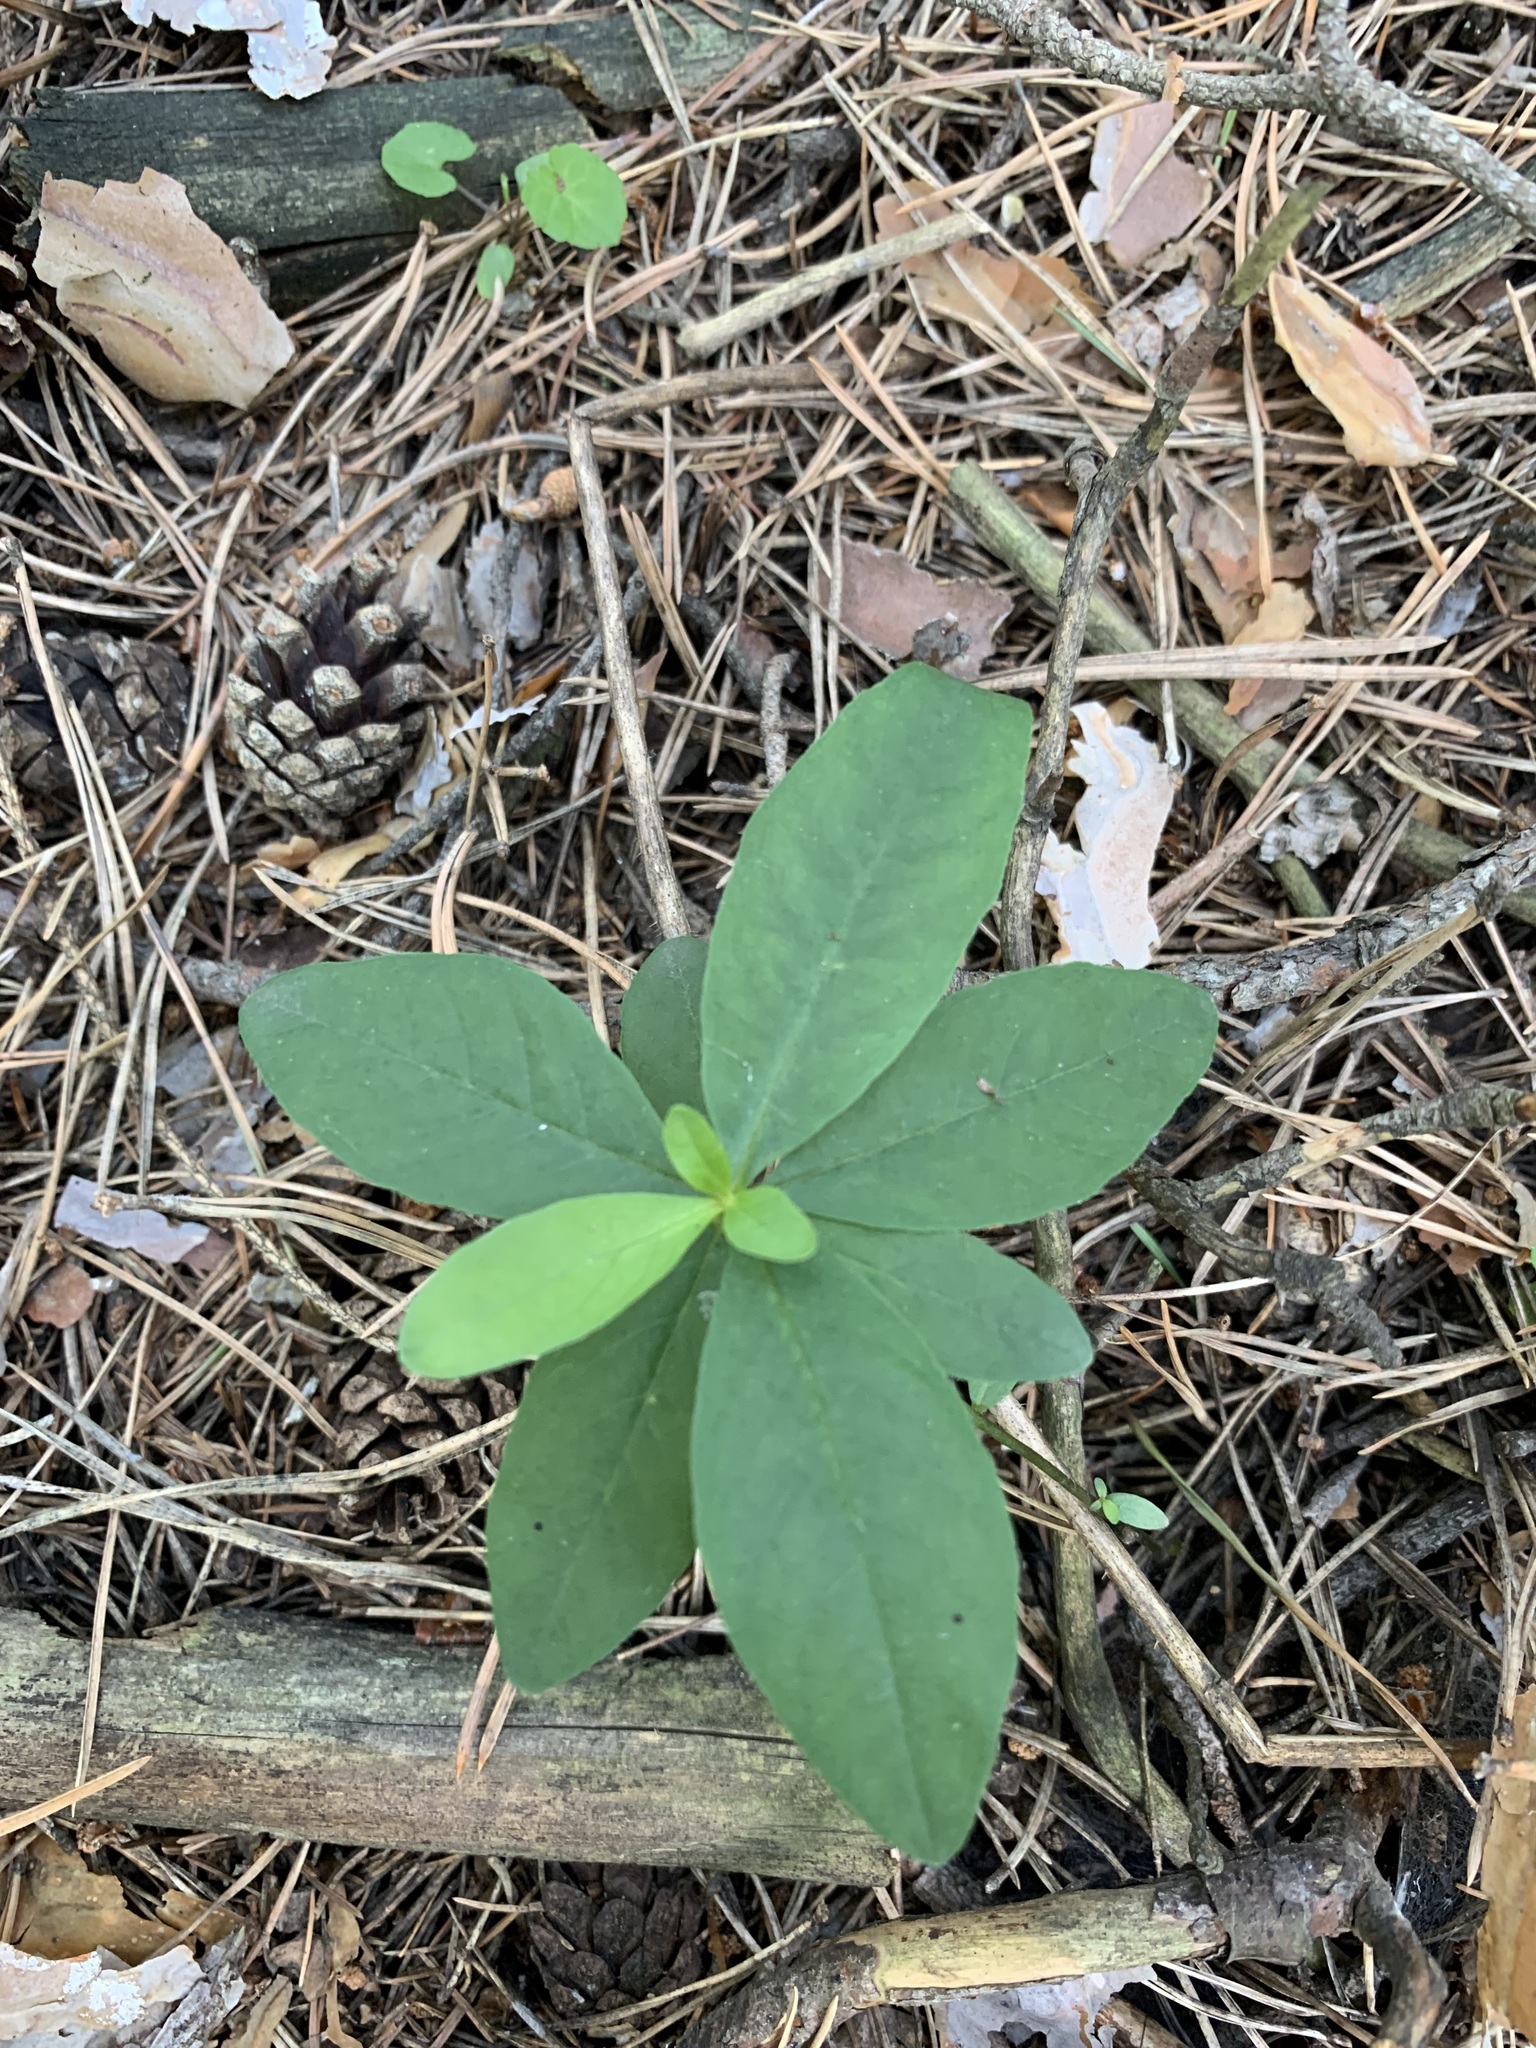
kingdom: Plantae
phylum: Tracheophyta
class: Magnoliopsida
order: Ericales
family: Primulaceae
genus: Lysimachia
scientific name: Lysimachia europaea
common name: Arctic starflower
